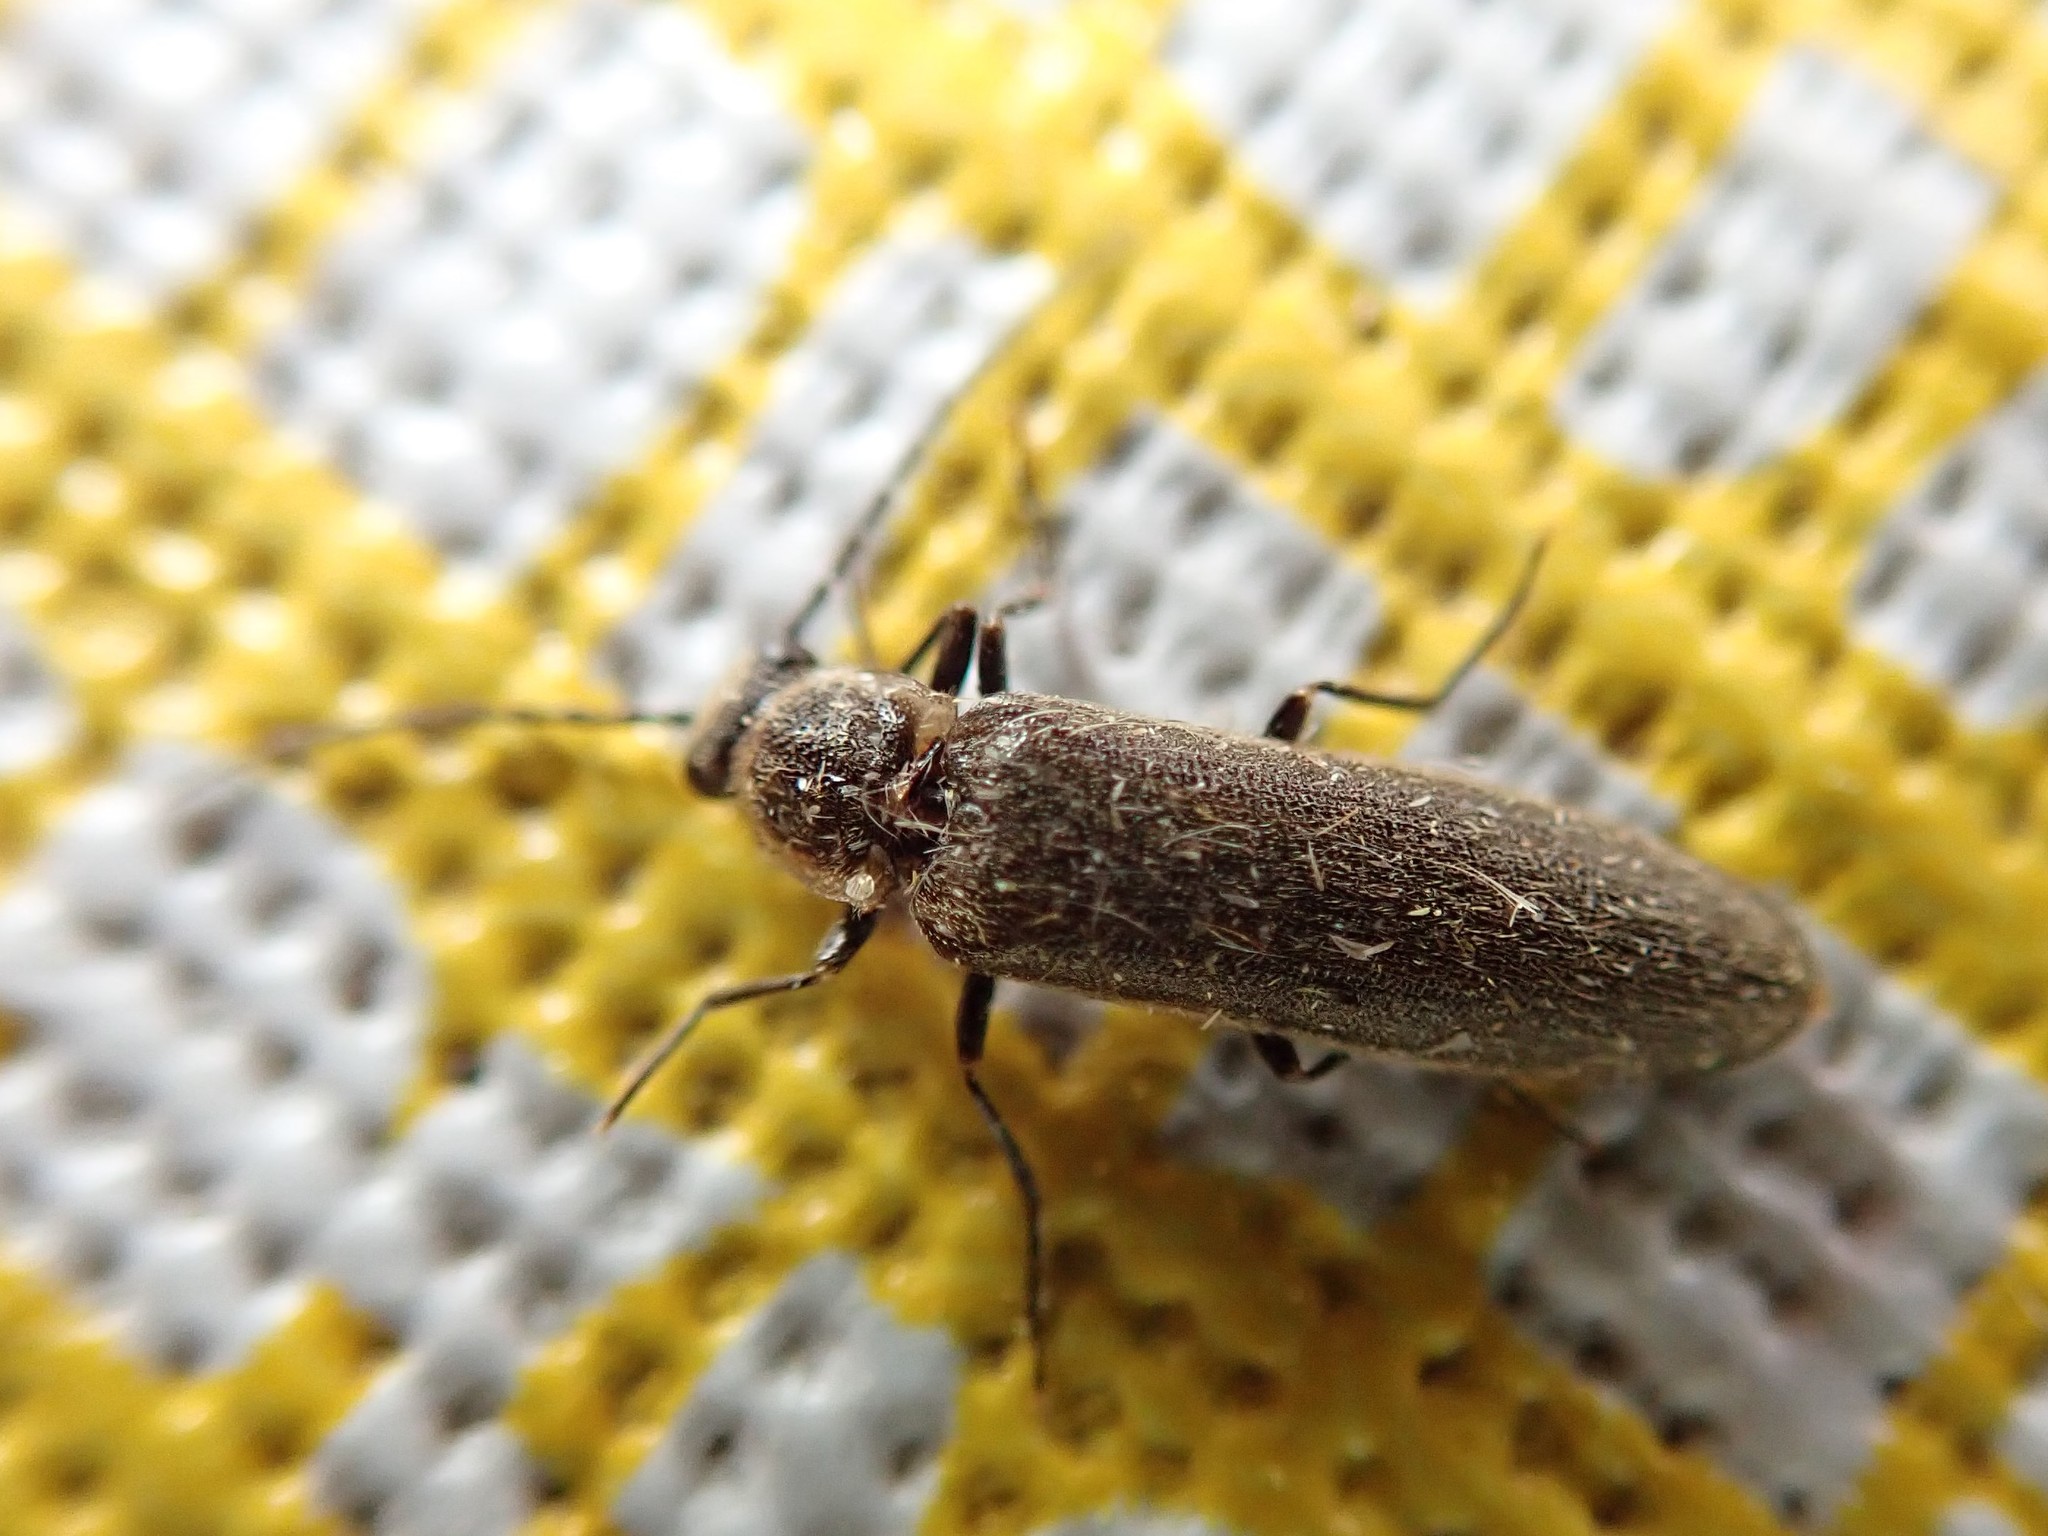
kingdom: Animalia
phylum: Arthropoda
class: Insecta
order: Coleoptera
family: Elateridae
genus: Denticollis
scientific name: Denticollis denticornis
